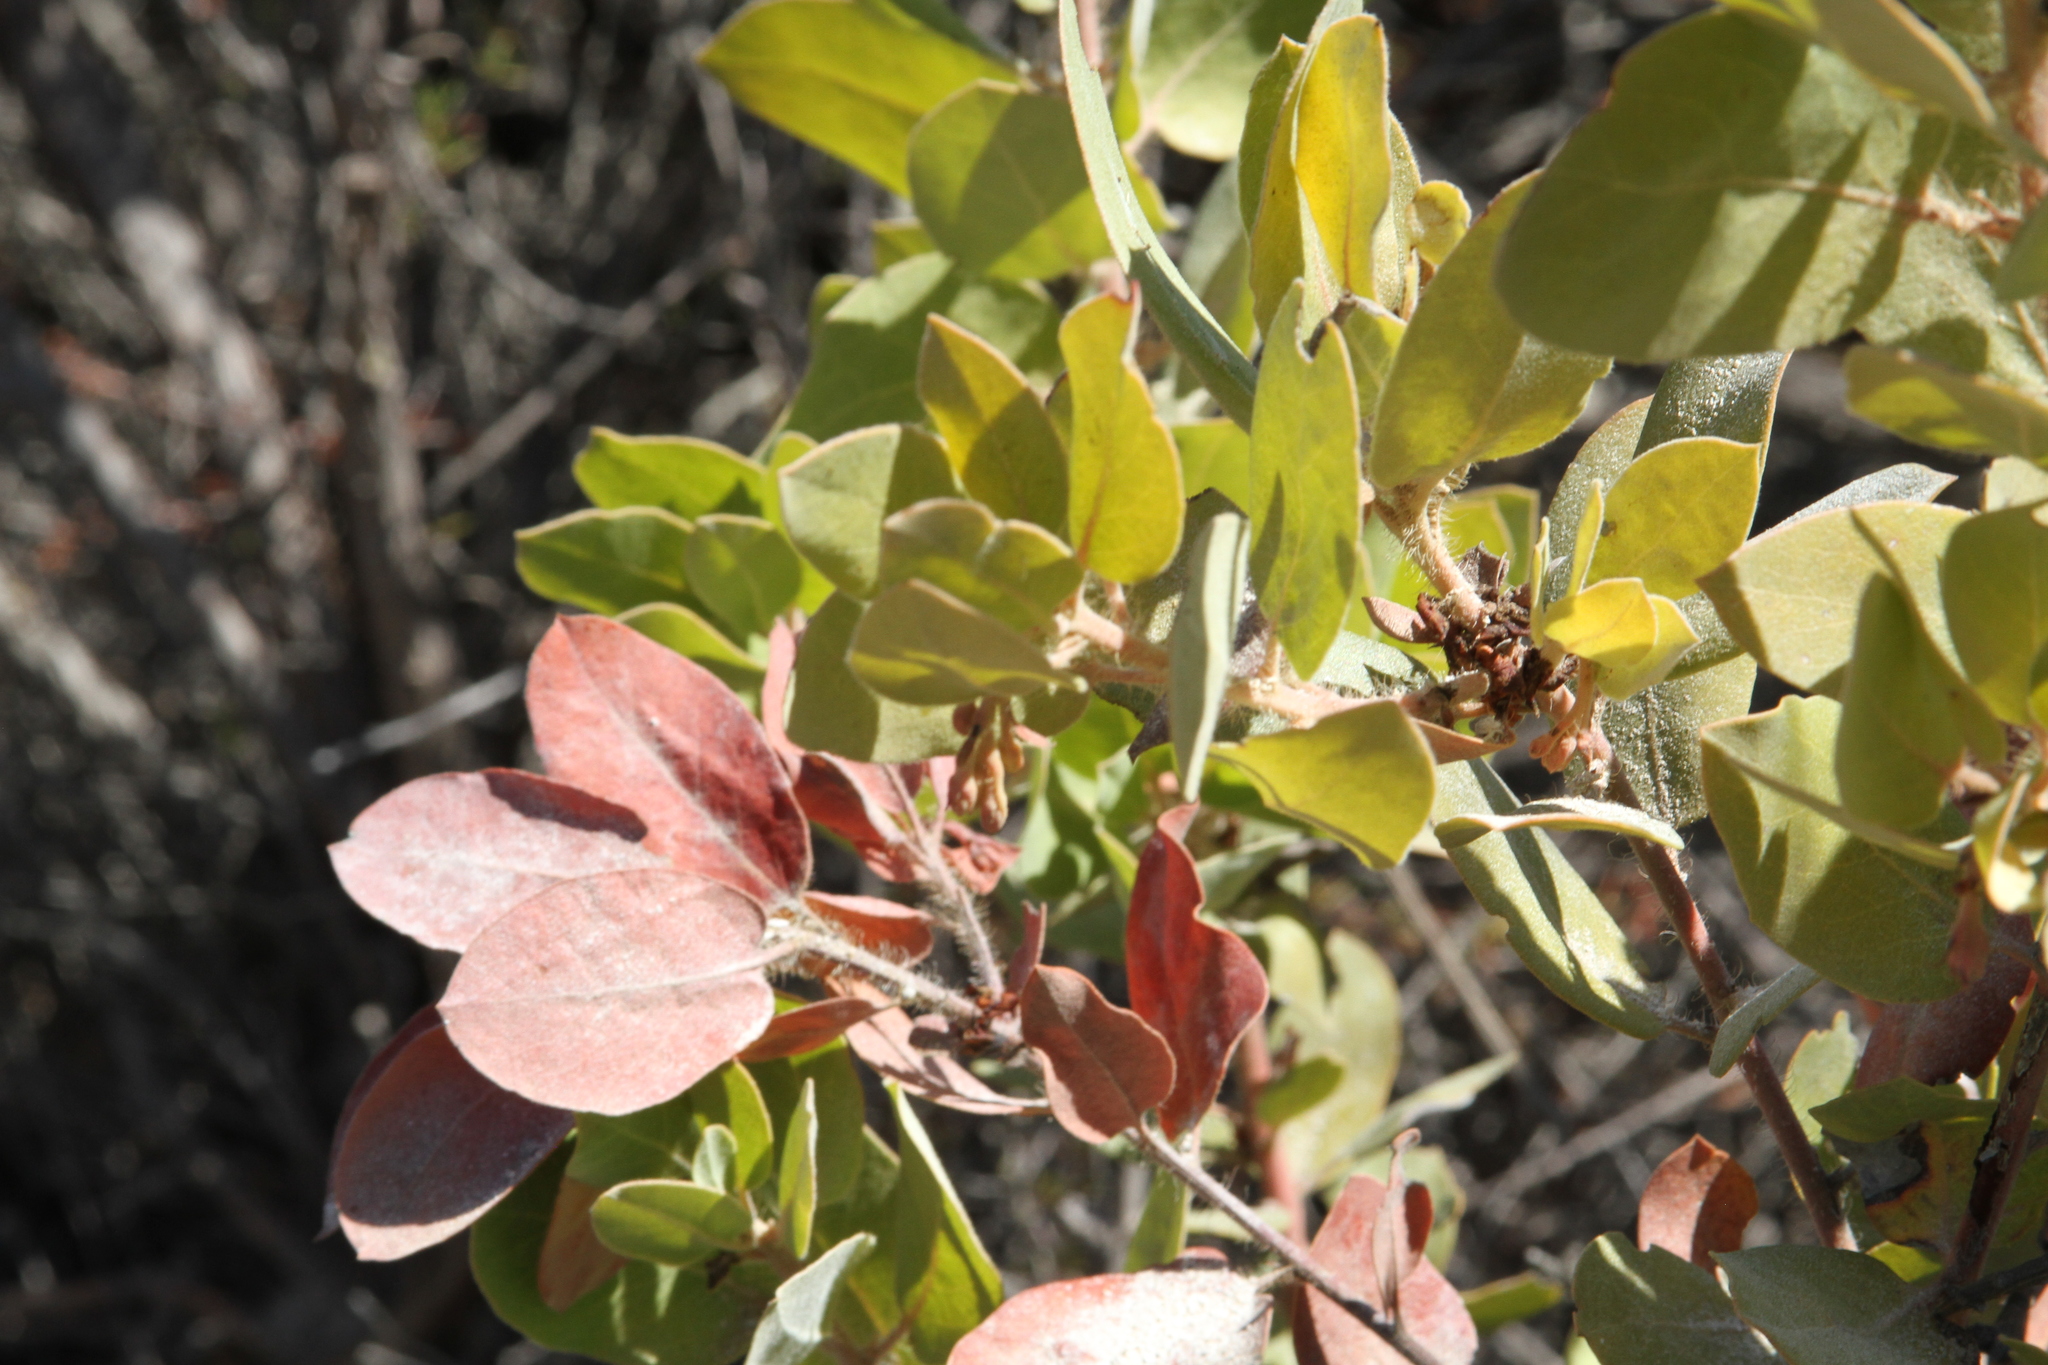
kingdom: Plantae
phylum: Tracheophyta
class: Magnoliopsida
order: Ericales
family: Ericaceae
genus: Arctostaphylos
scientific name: Arctostaphylos crustacea
